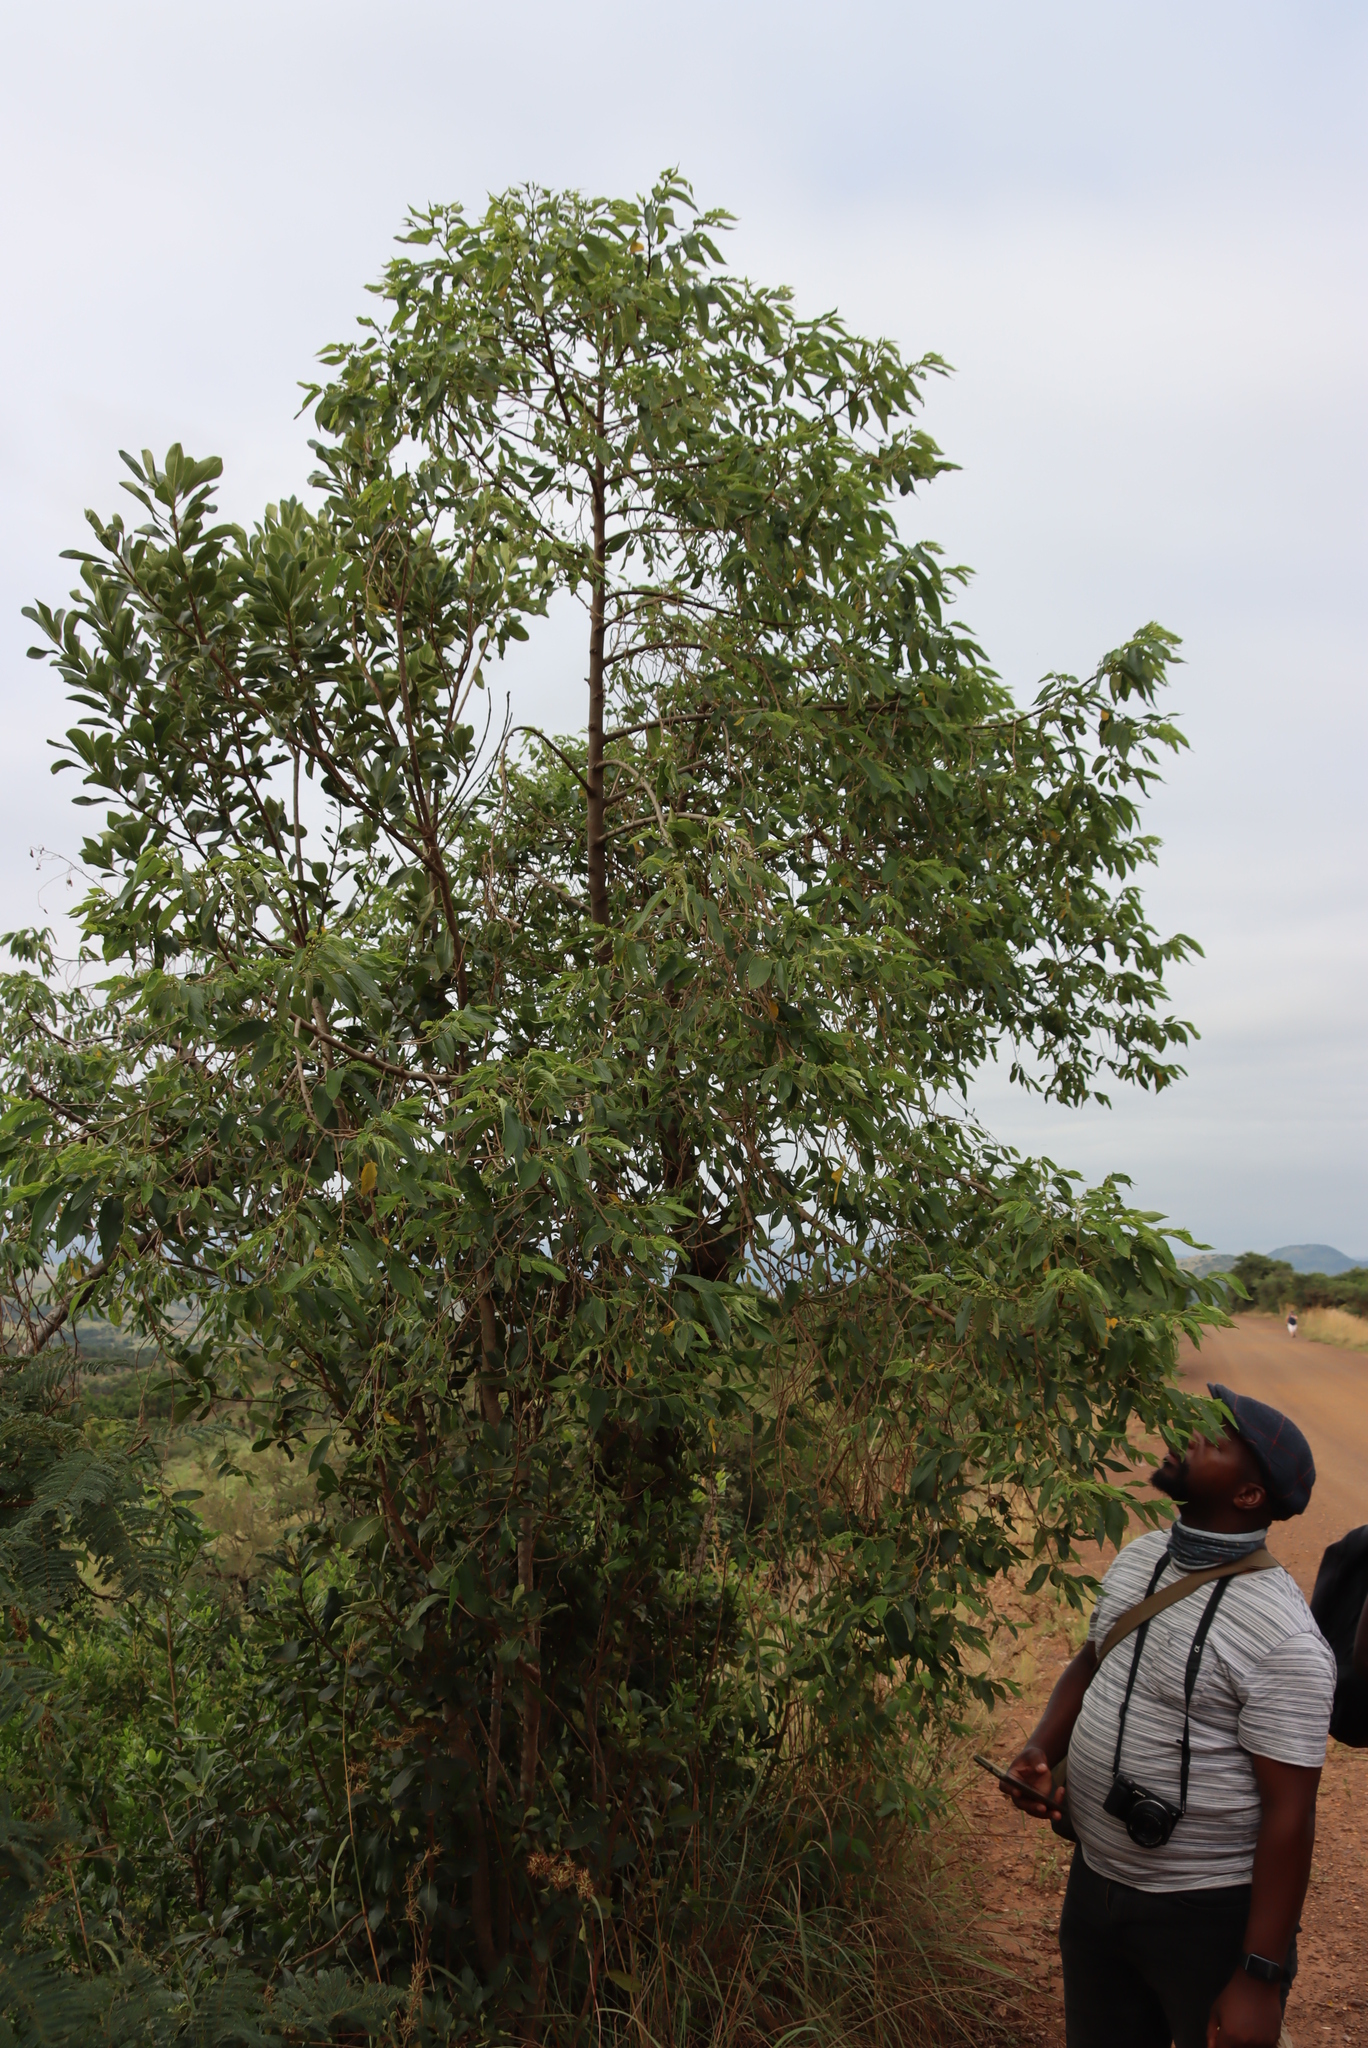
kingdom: Plantae
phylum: Tracheophyta
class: Magnoliopsida
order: Rosales
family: Cannabaceae
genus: Trema
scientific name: Trema orientale
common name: Indian charcoal tree
